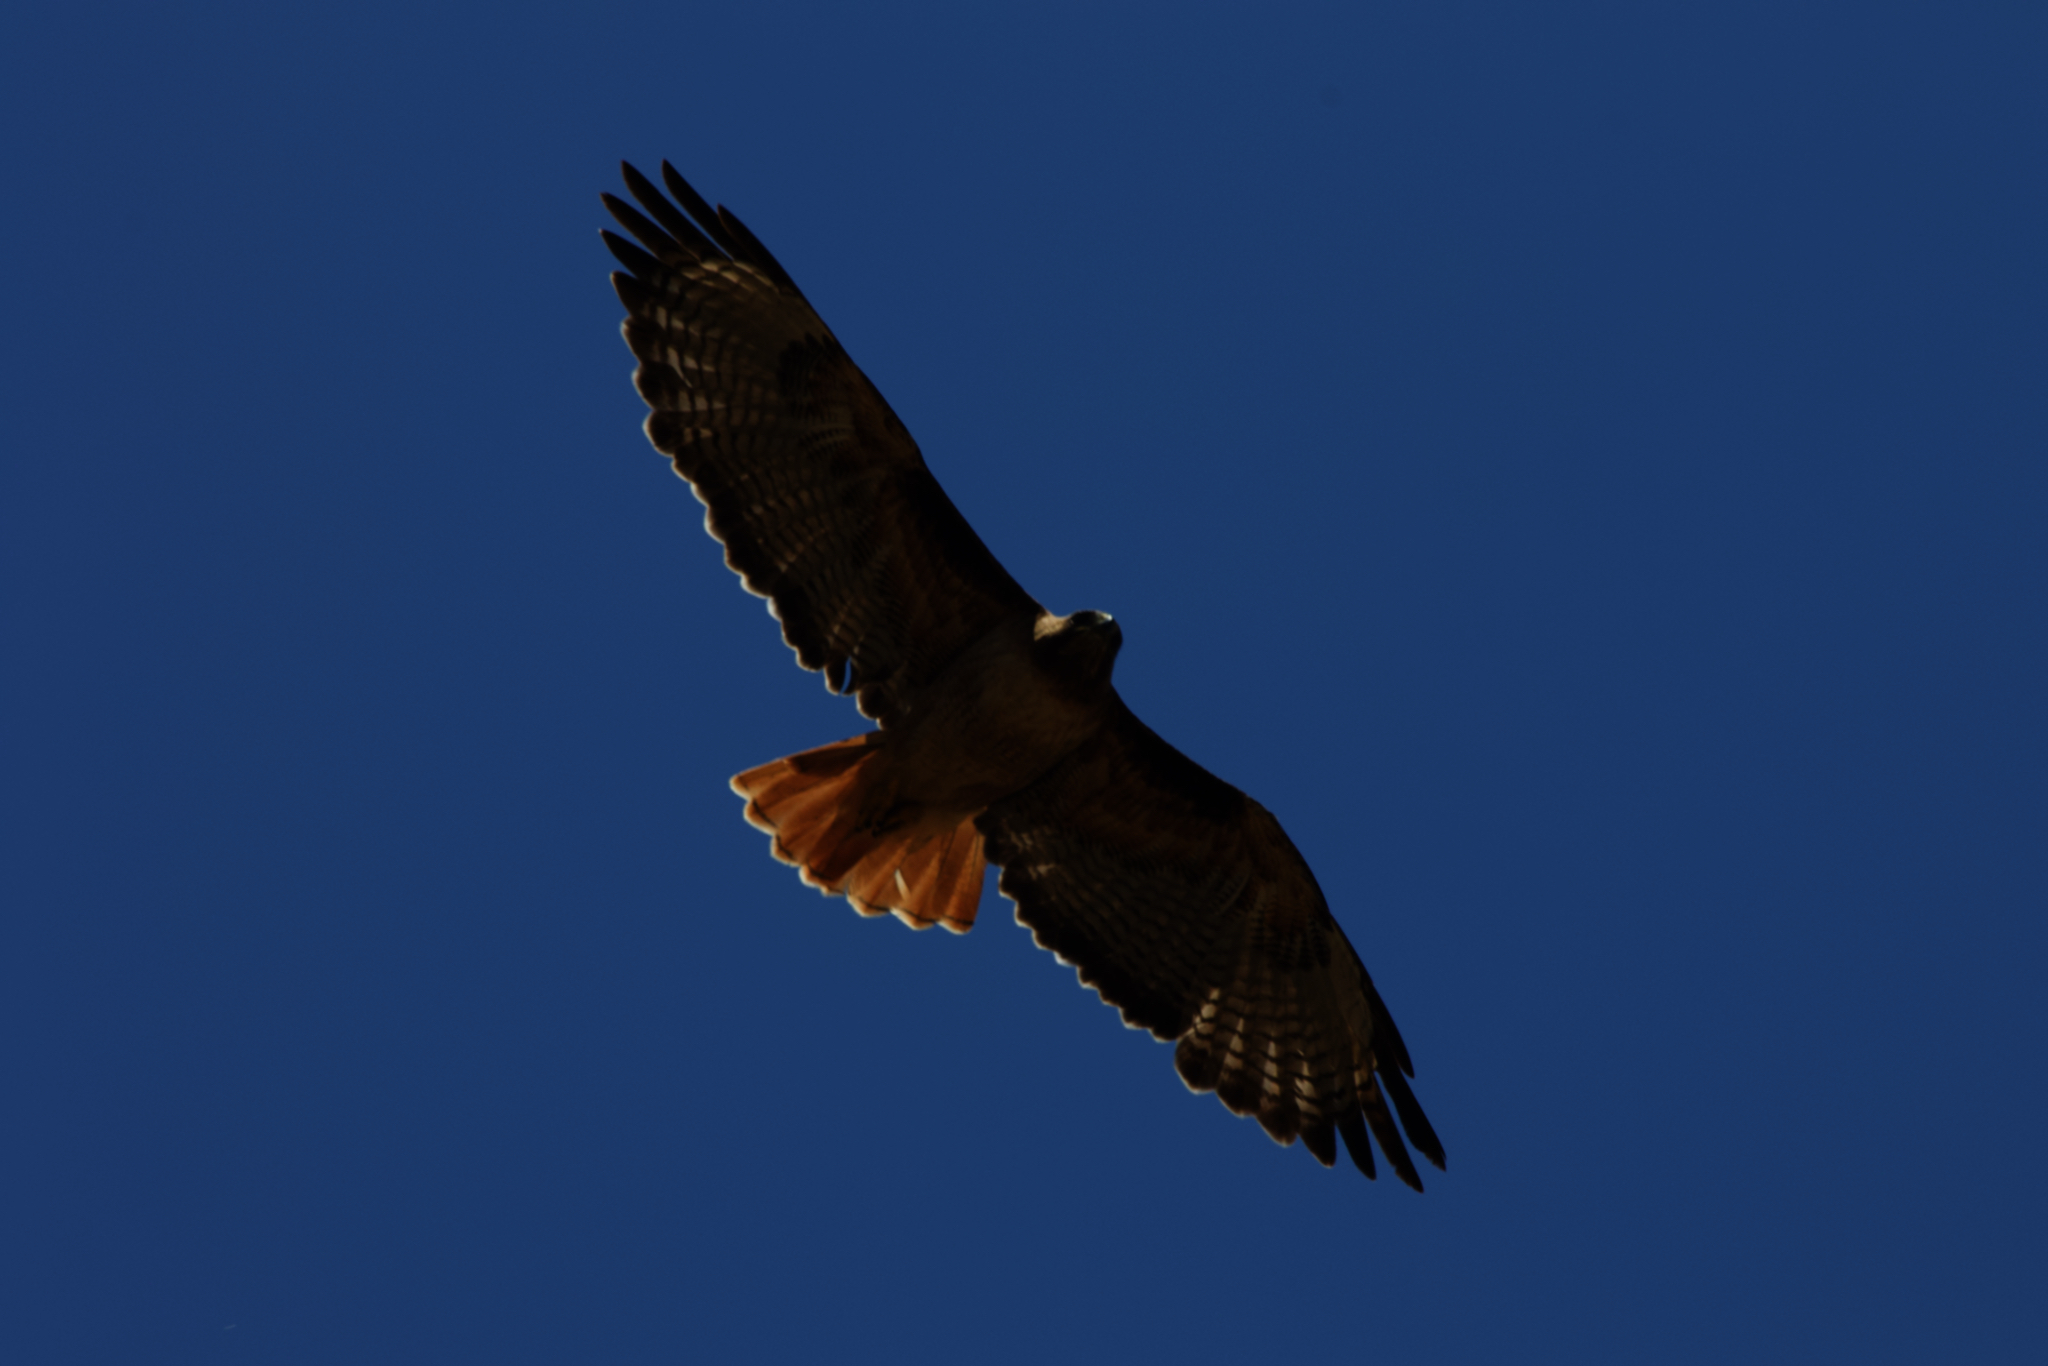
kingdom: Animalia
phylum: Chordata
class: Aves
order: Accipitriformes
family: Accipitridae
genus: Buteo
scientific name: Buteo jamaicensis
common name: Red-tailed hawk
